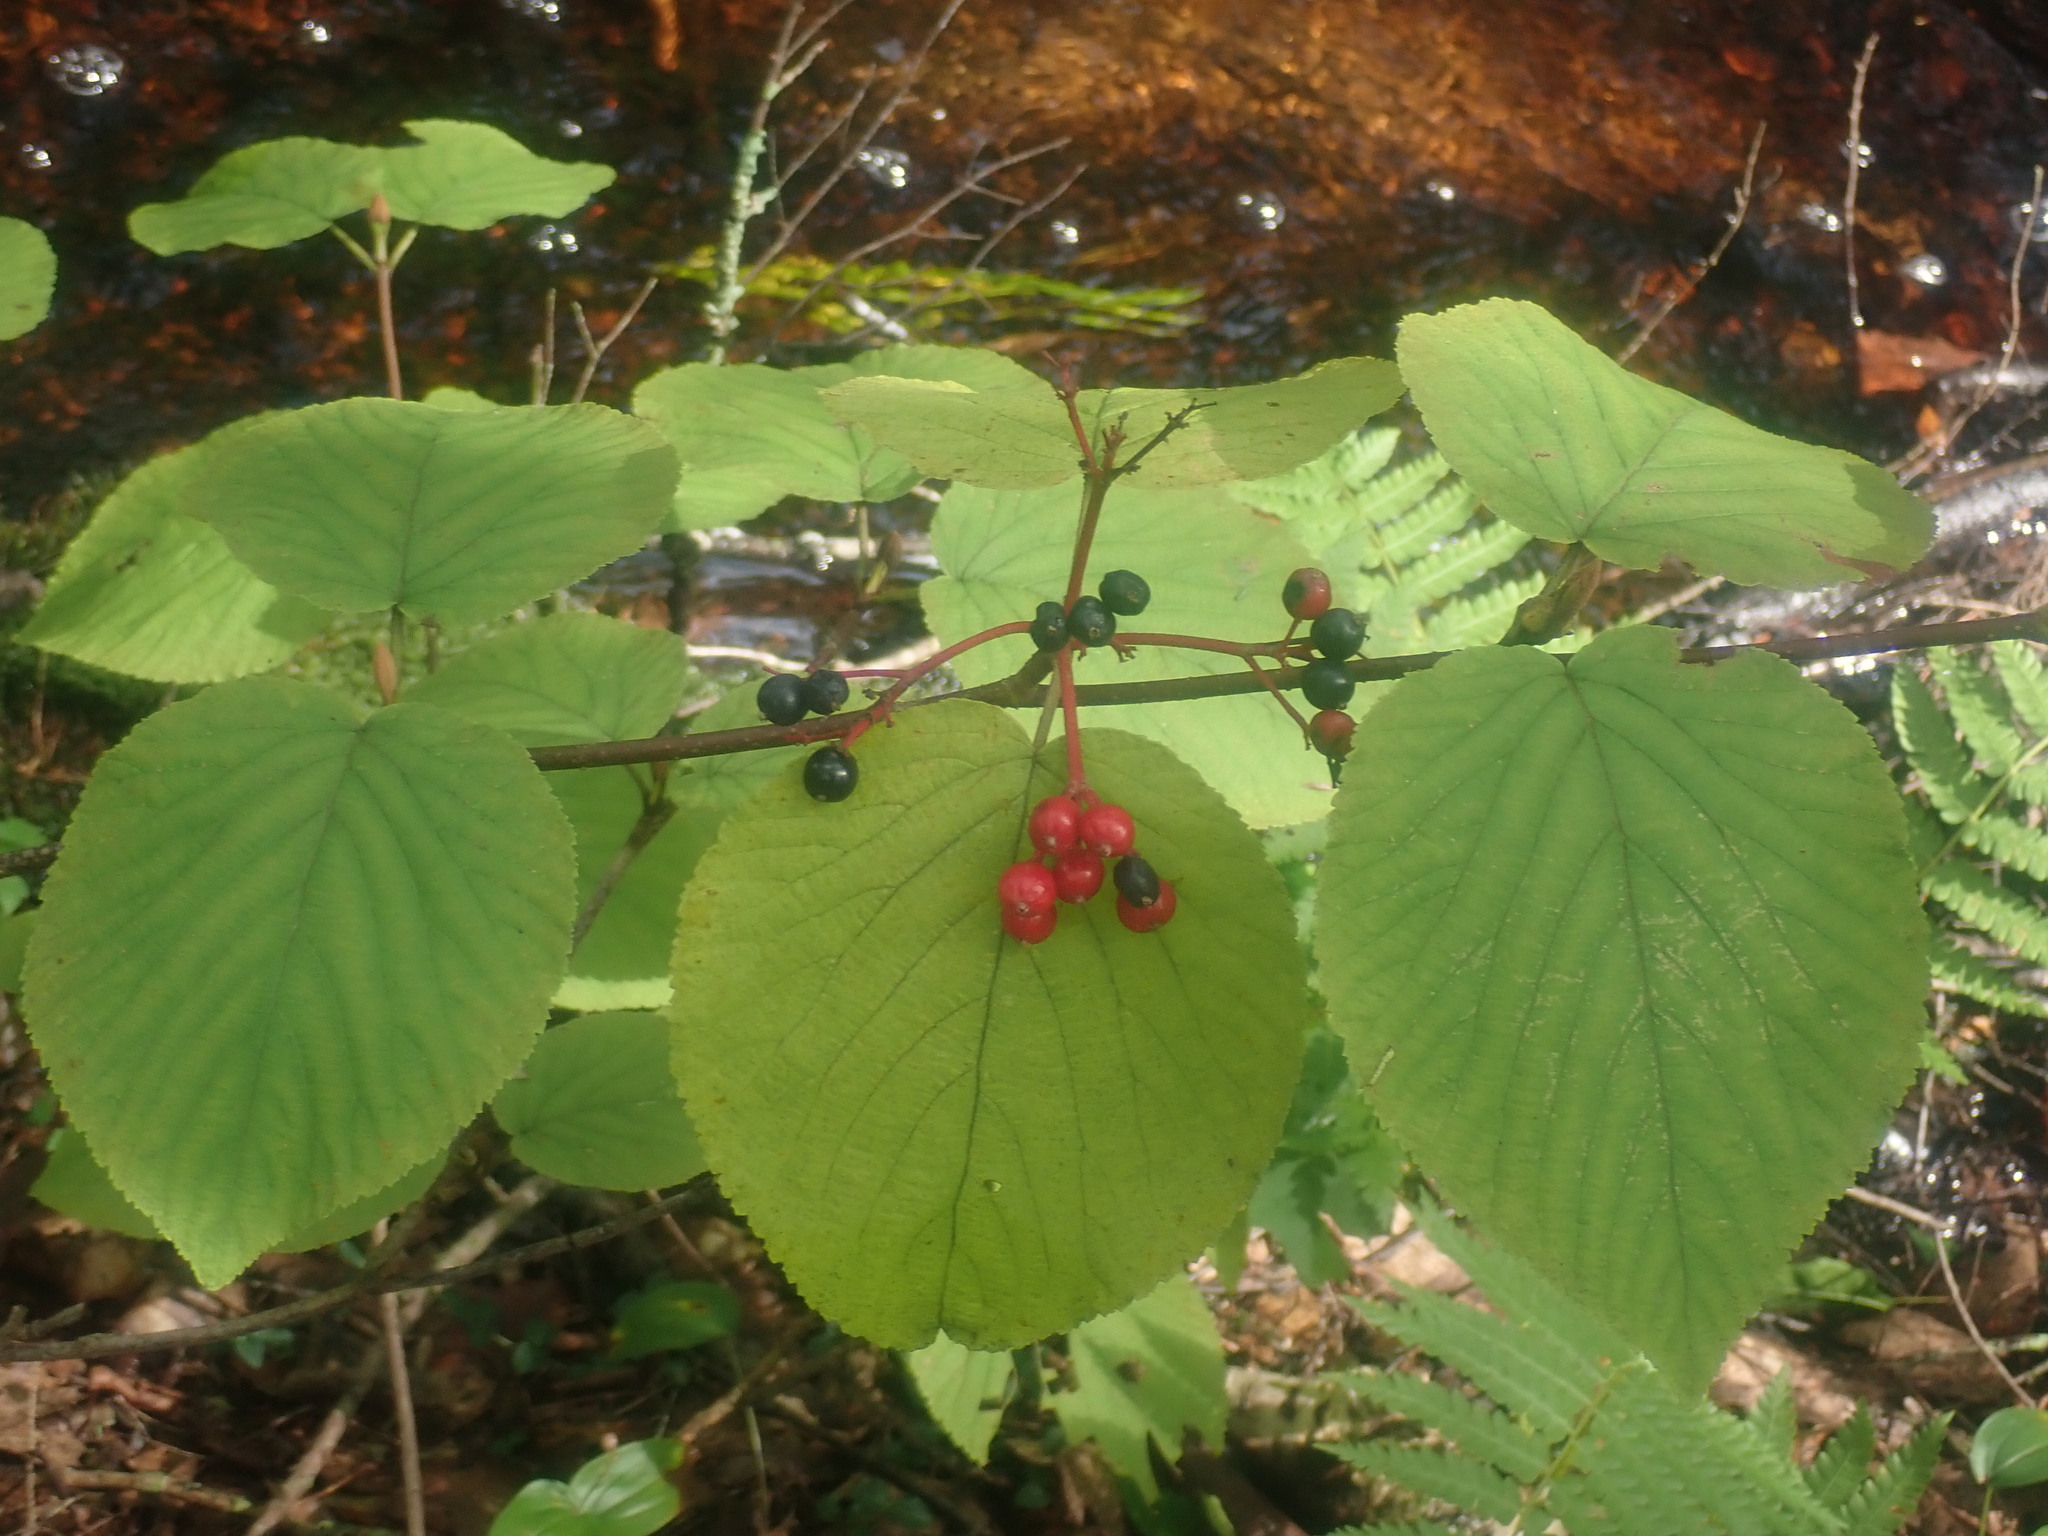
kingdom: Plantae
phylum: Tracheophyta
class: Magnoliopsida
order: Dipsacales
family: Viburnaceae
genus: Viburnum
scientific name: Viburnum lantanoides
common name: Hobblebush
